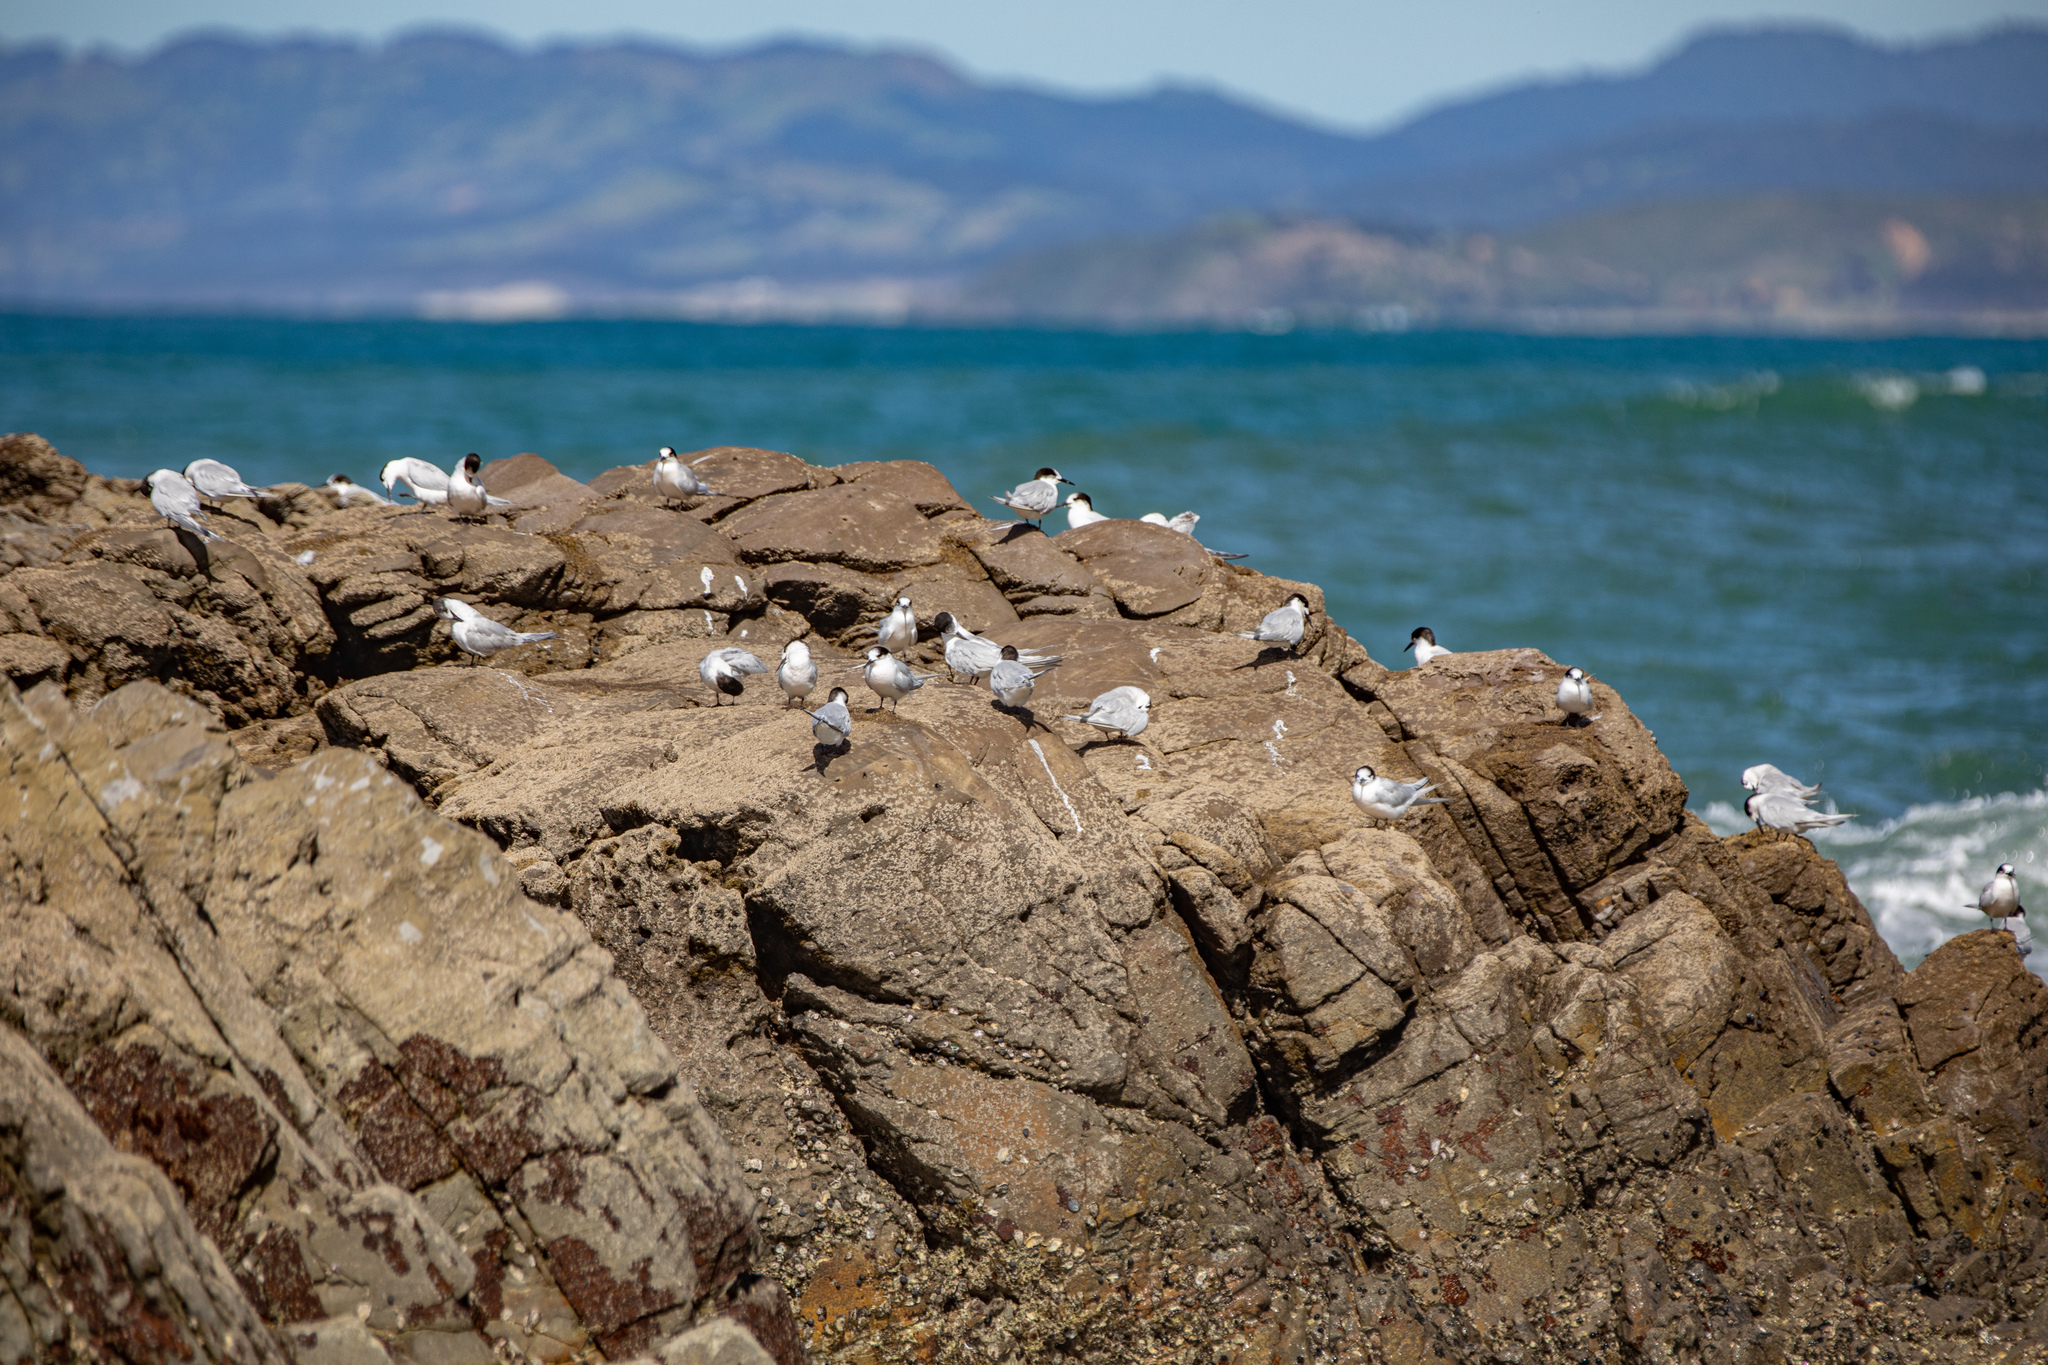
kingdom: Animalia
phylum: Chordata
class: Aves
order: Charadriiformes
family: Laridae
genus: Sterna
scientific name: Sterna striata
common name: White-fronted tern
